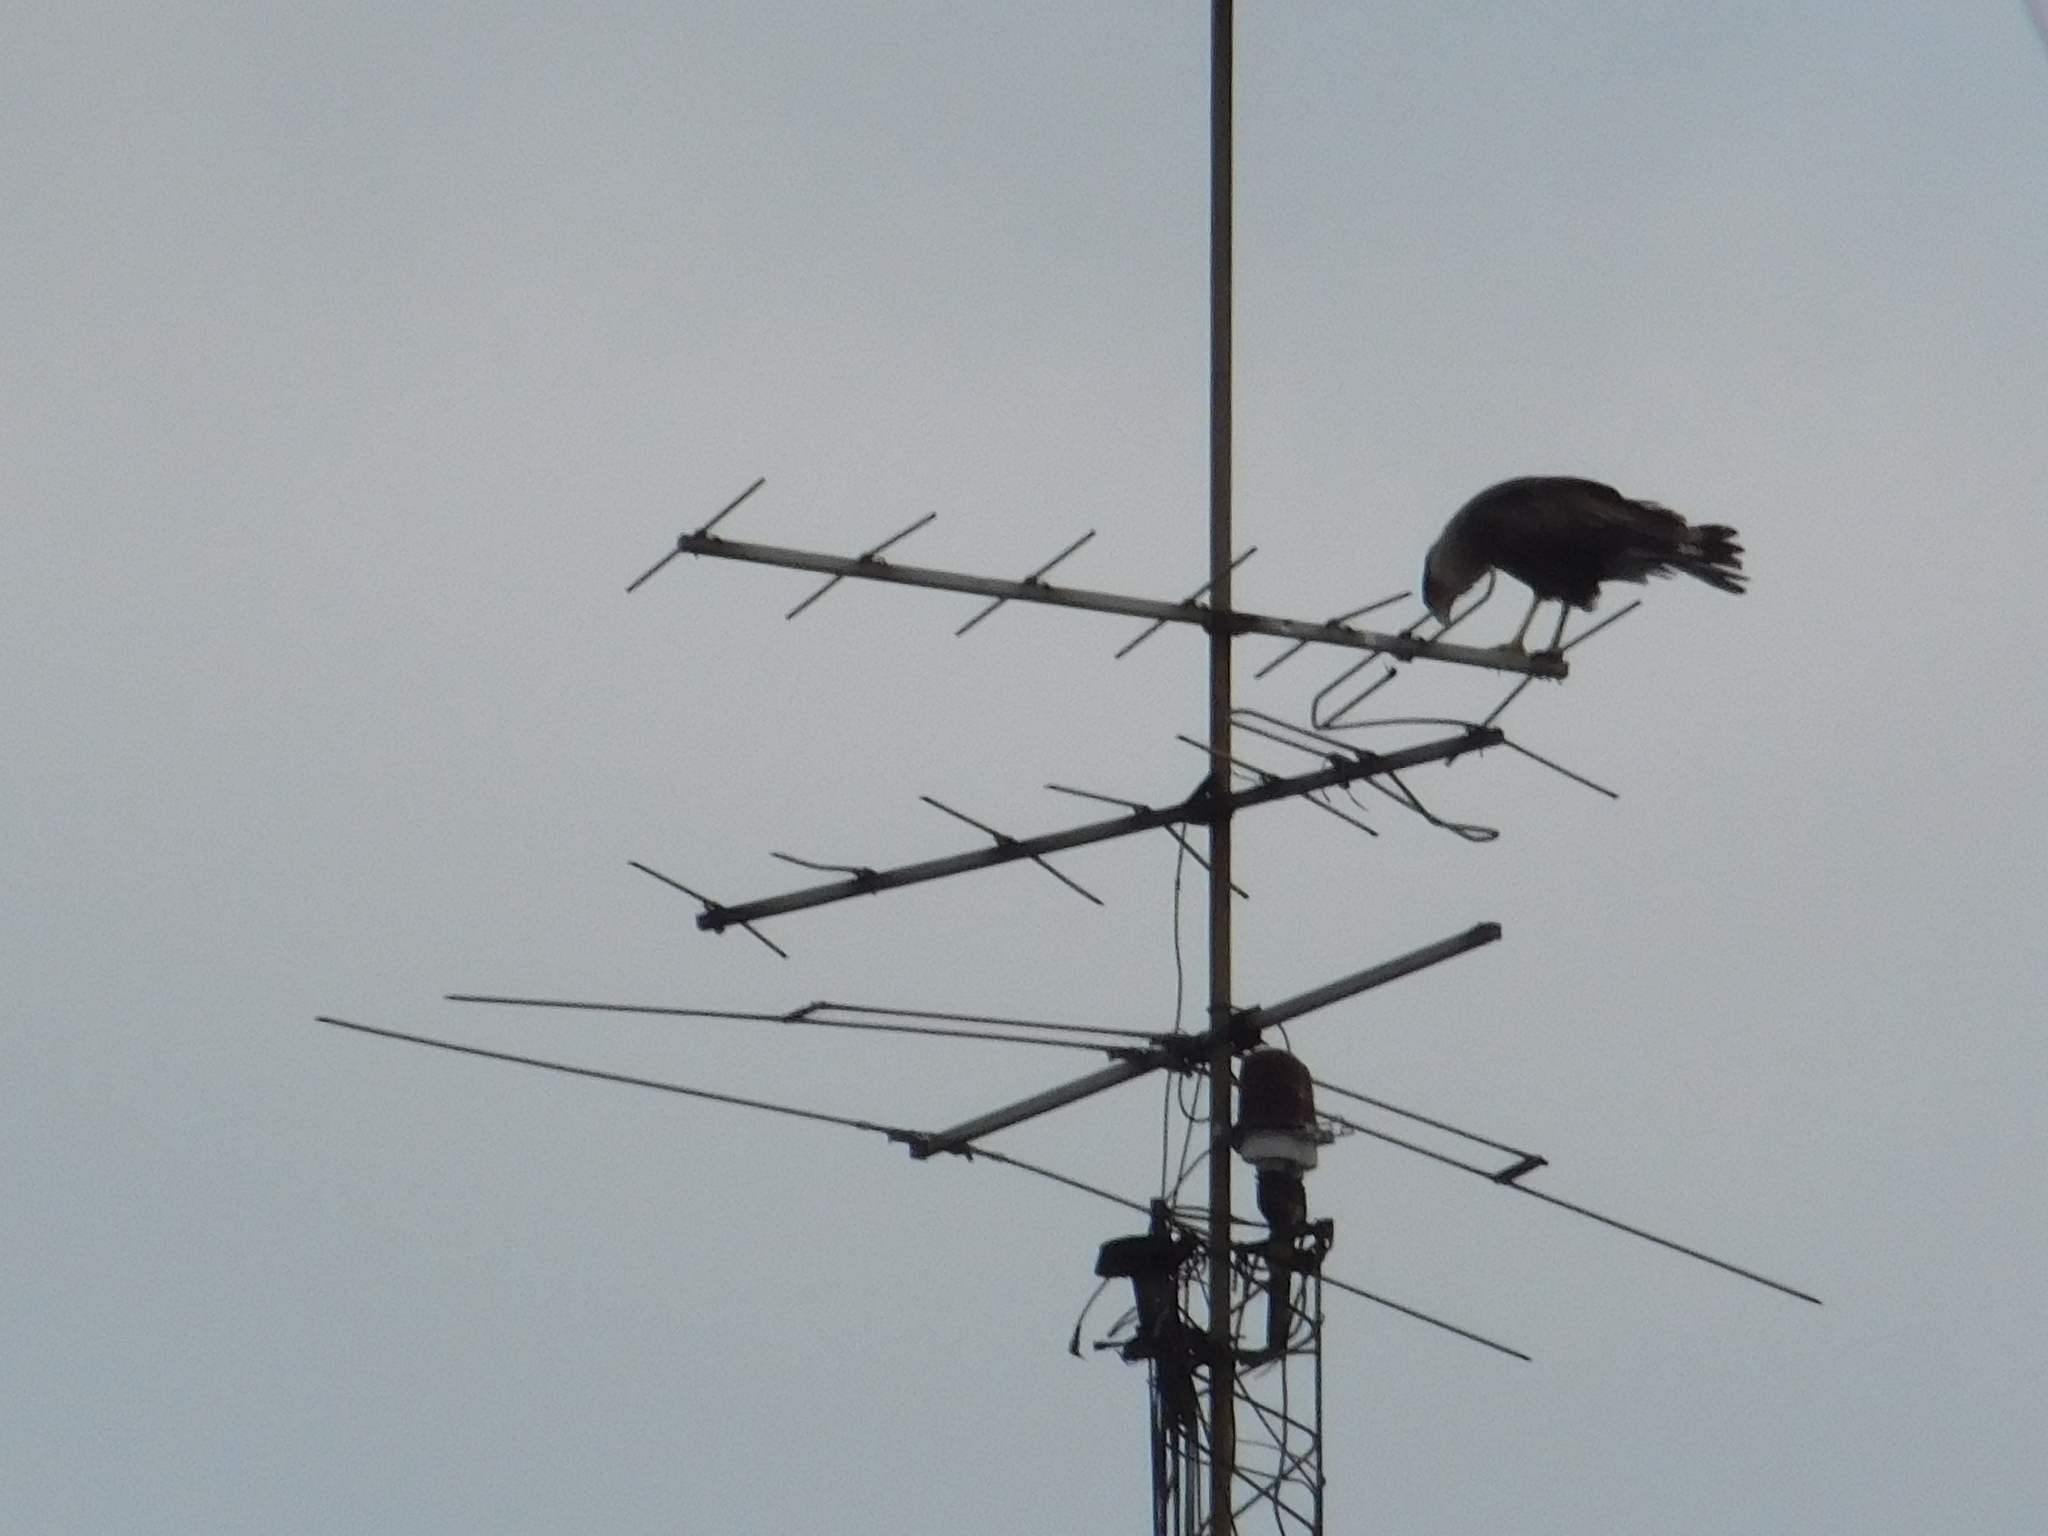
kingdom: Animalia
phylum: Chordata
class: Aves
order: Falconiformes
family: Falconidae
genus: Caracara
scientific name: Caracara plancus
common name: Southern caracara
